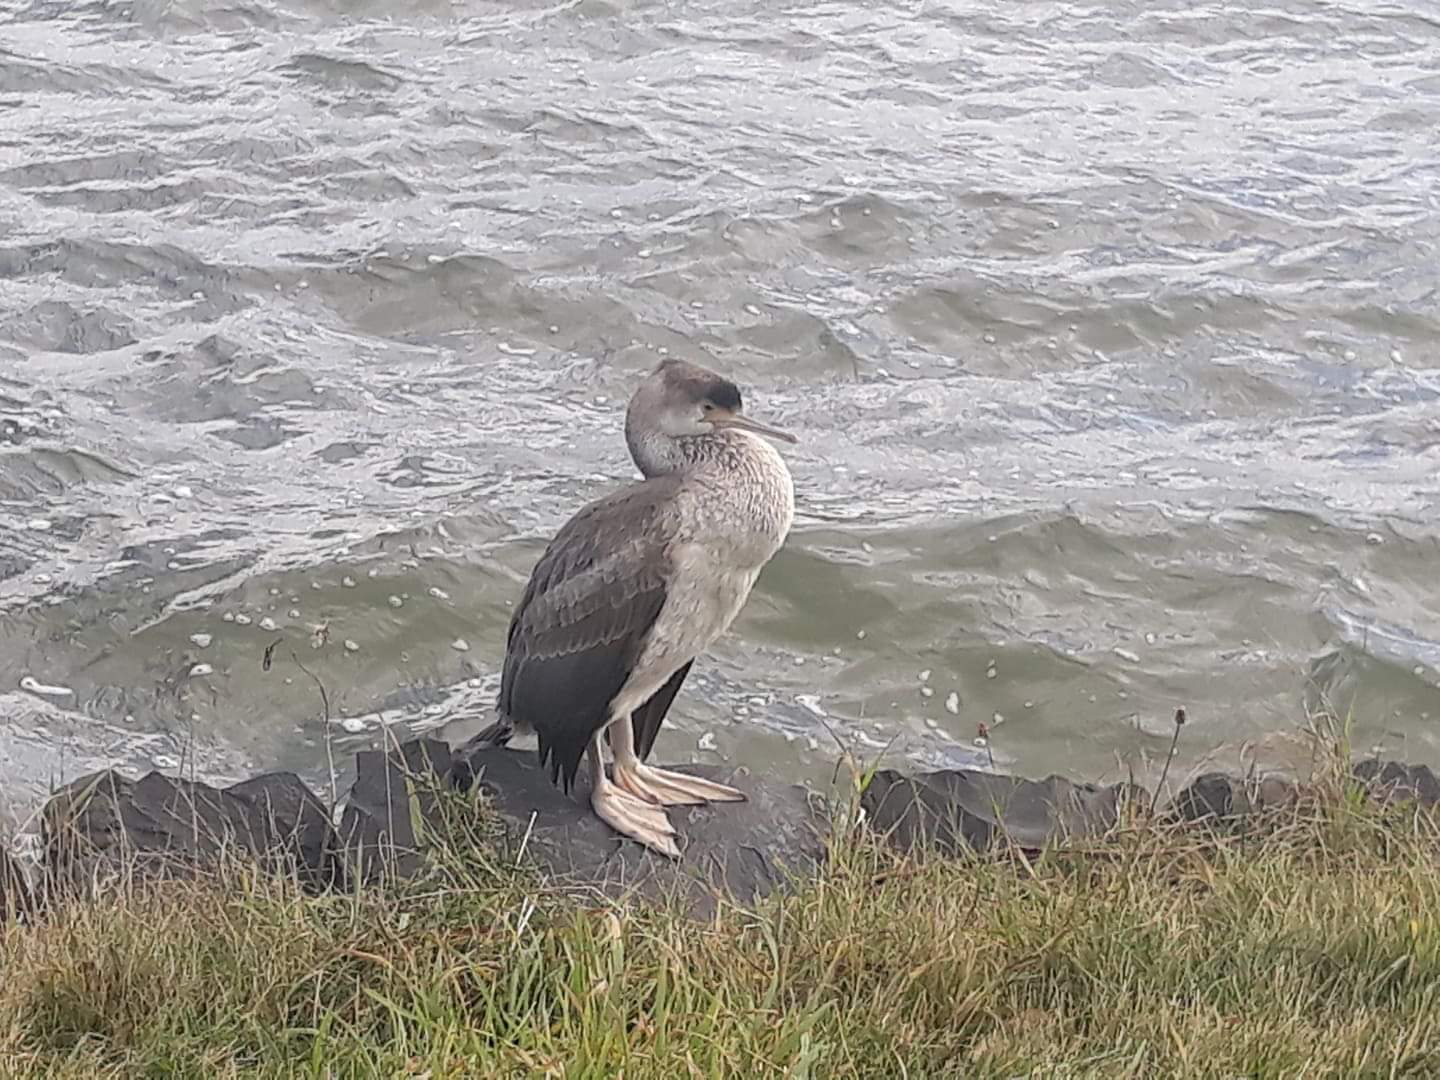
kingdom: Animalia
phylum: Chordata
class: Aves
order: Suliformes
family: Phalacrocoracidae
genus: Phalacrocorax
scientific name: Phalacrocorax punctatus
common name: Spotted shag
